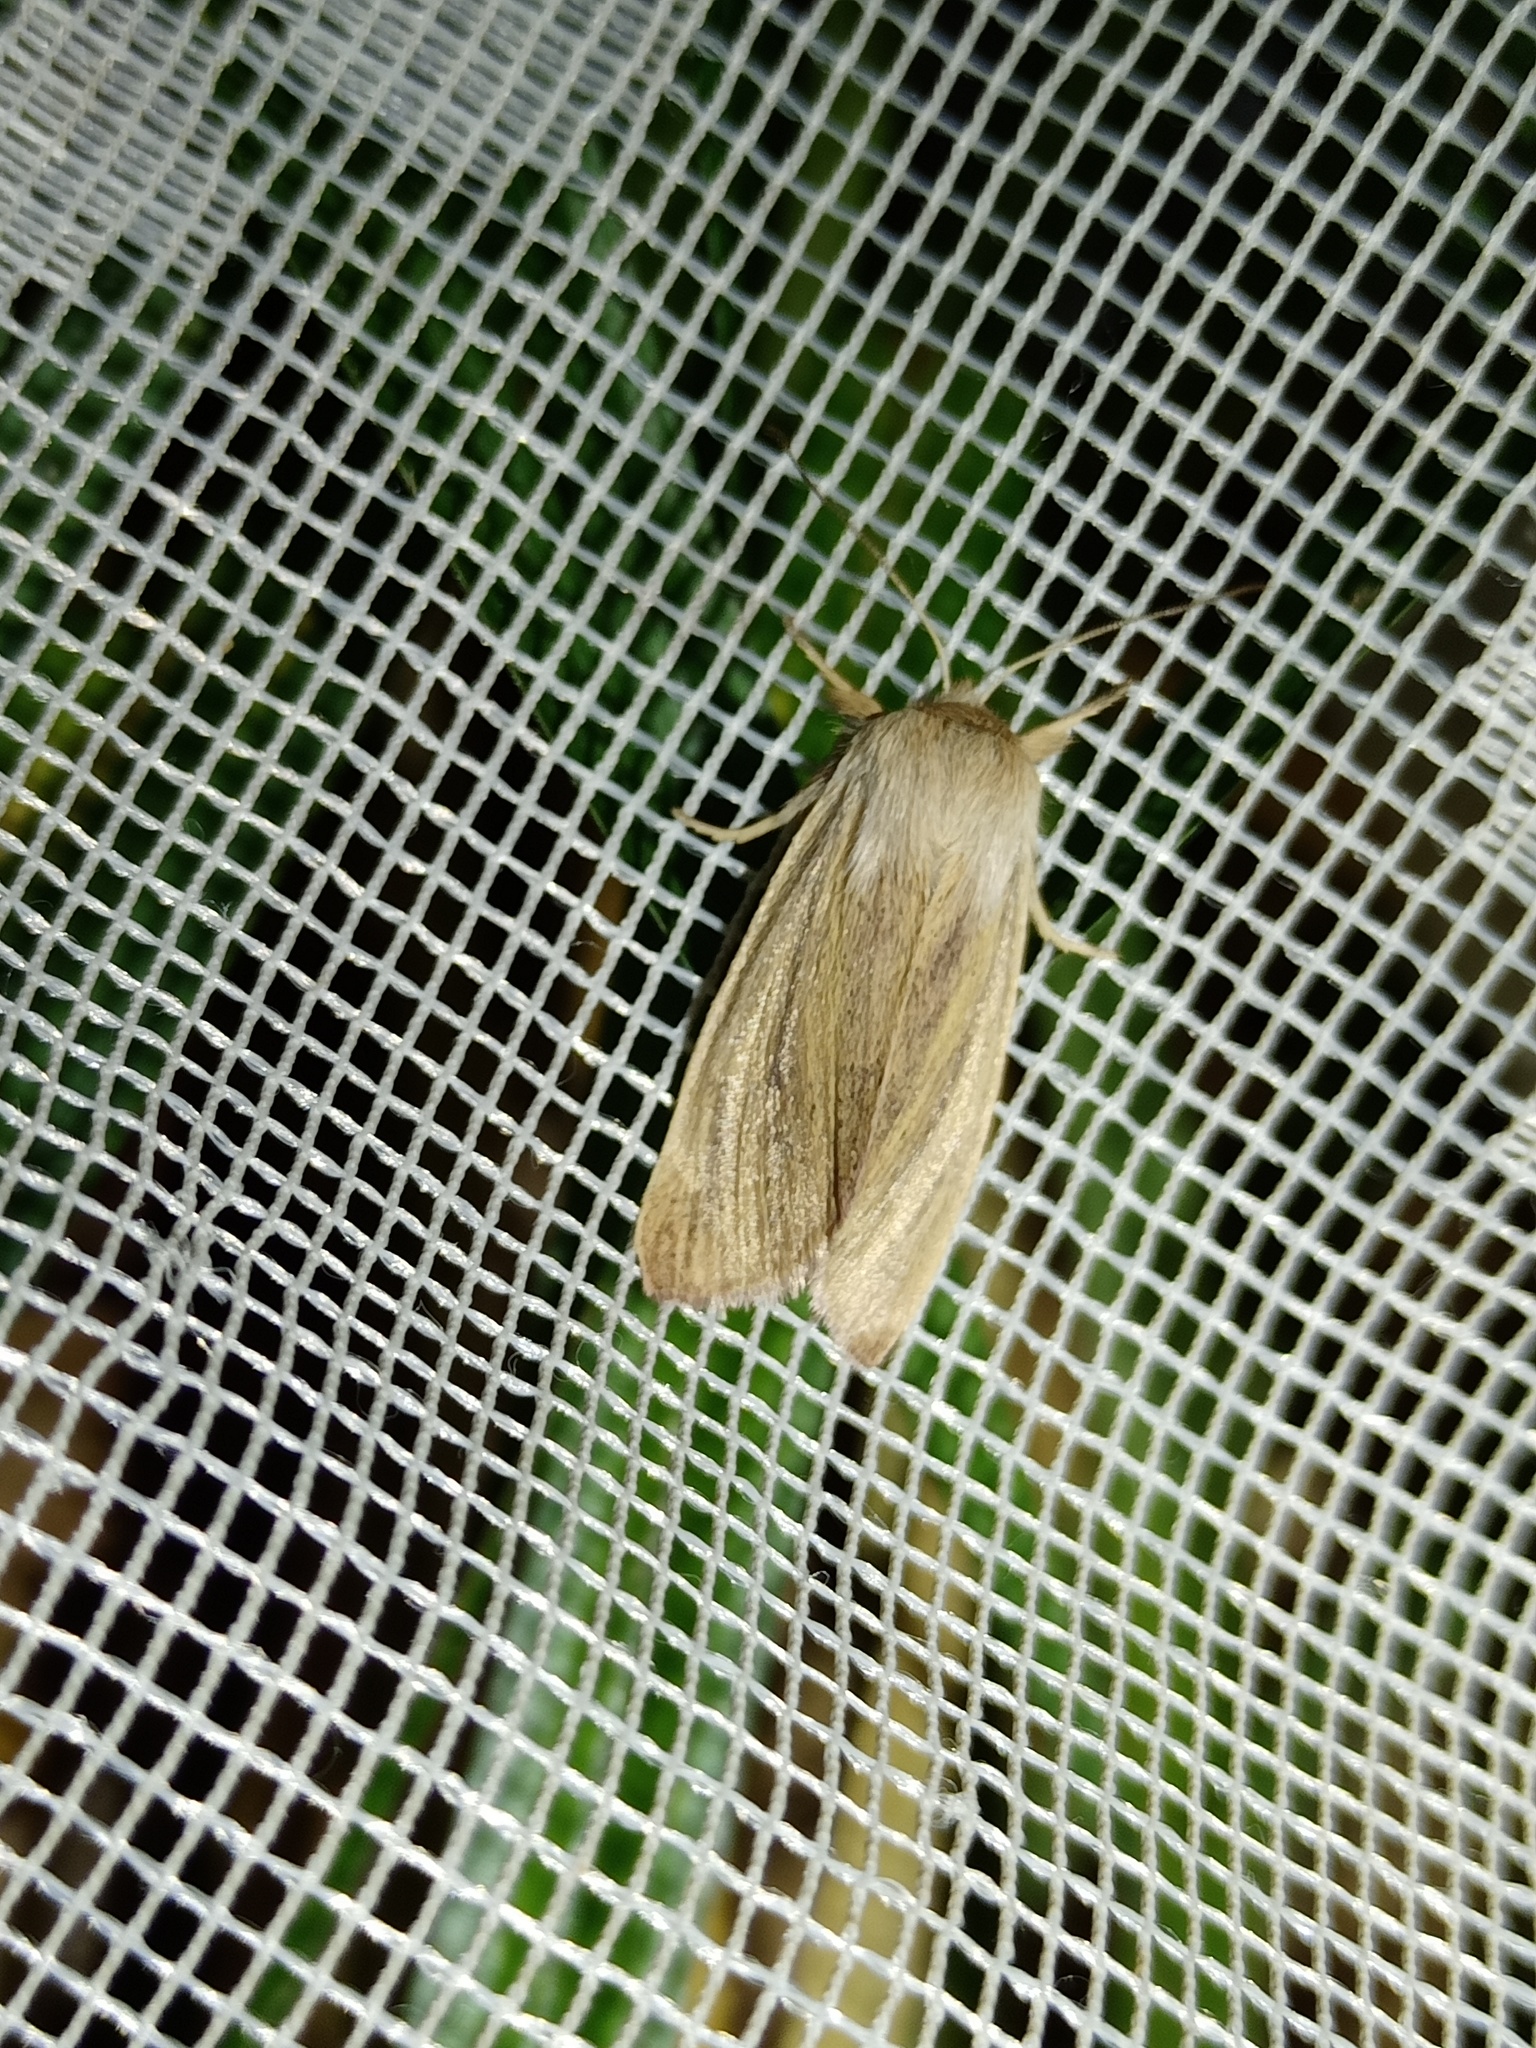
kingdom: Animalia
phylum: Arthropoda
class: Insecta
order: Lepidoptera
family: Noctuidae
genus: Sedina
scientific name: Sedina buettneri
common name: Blair's wainscot
